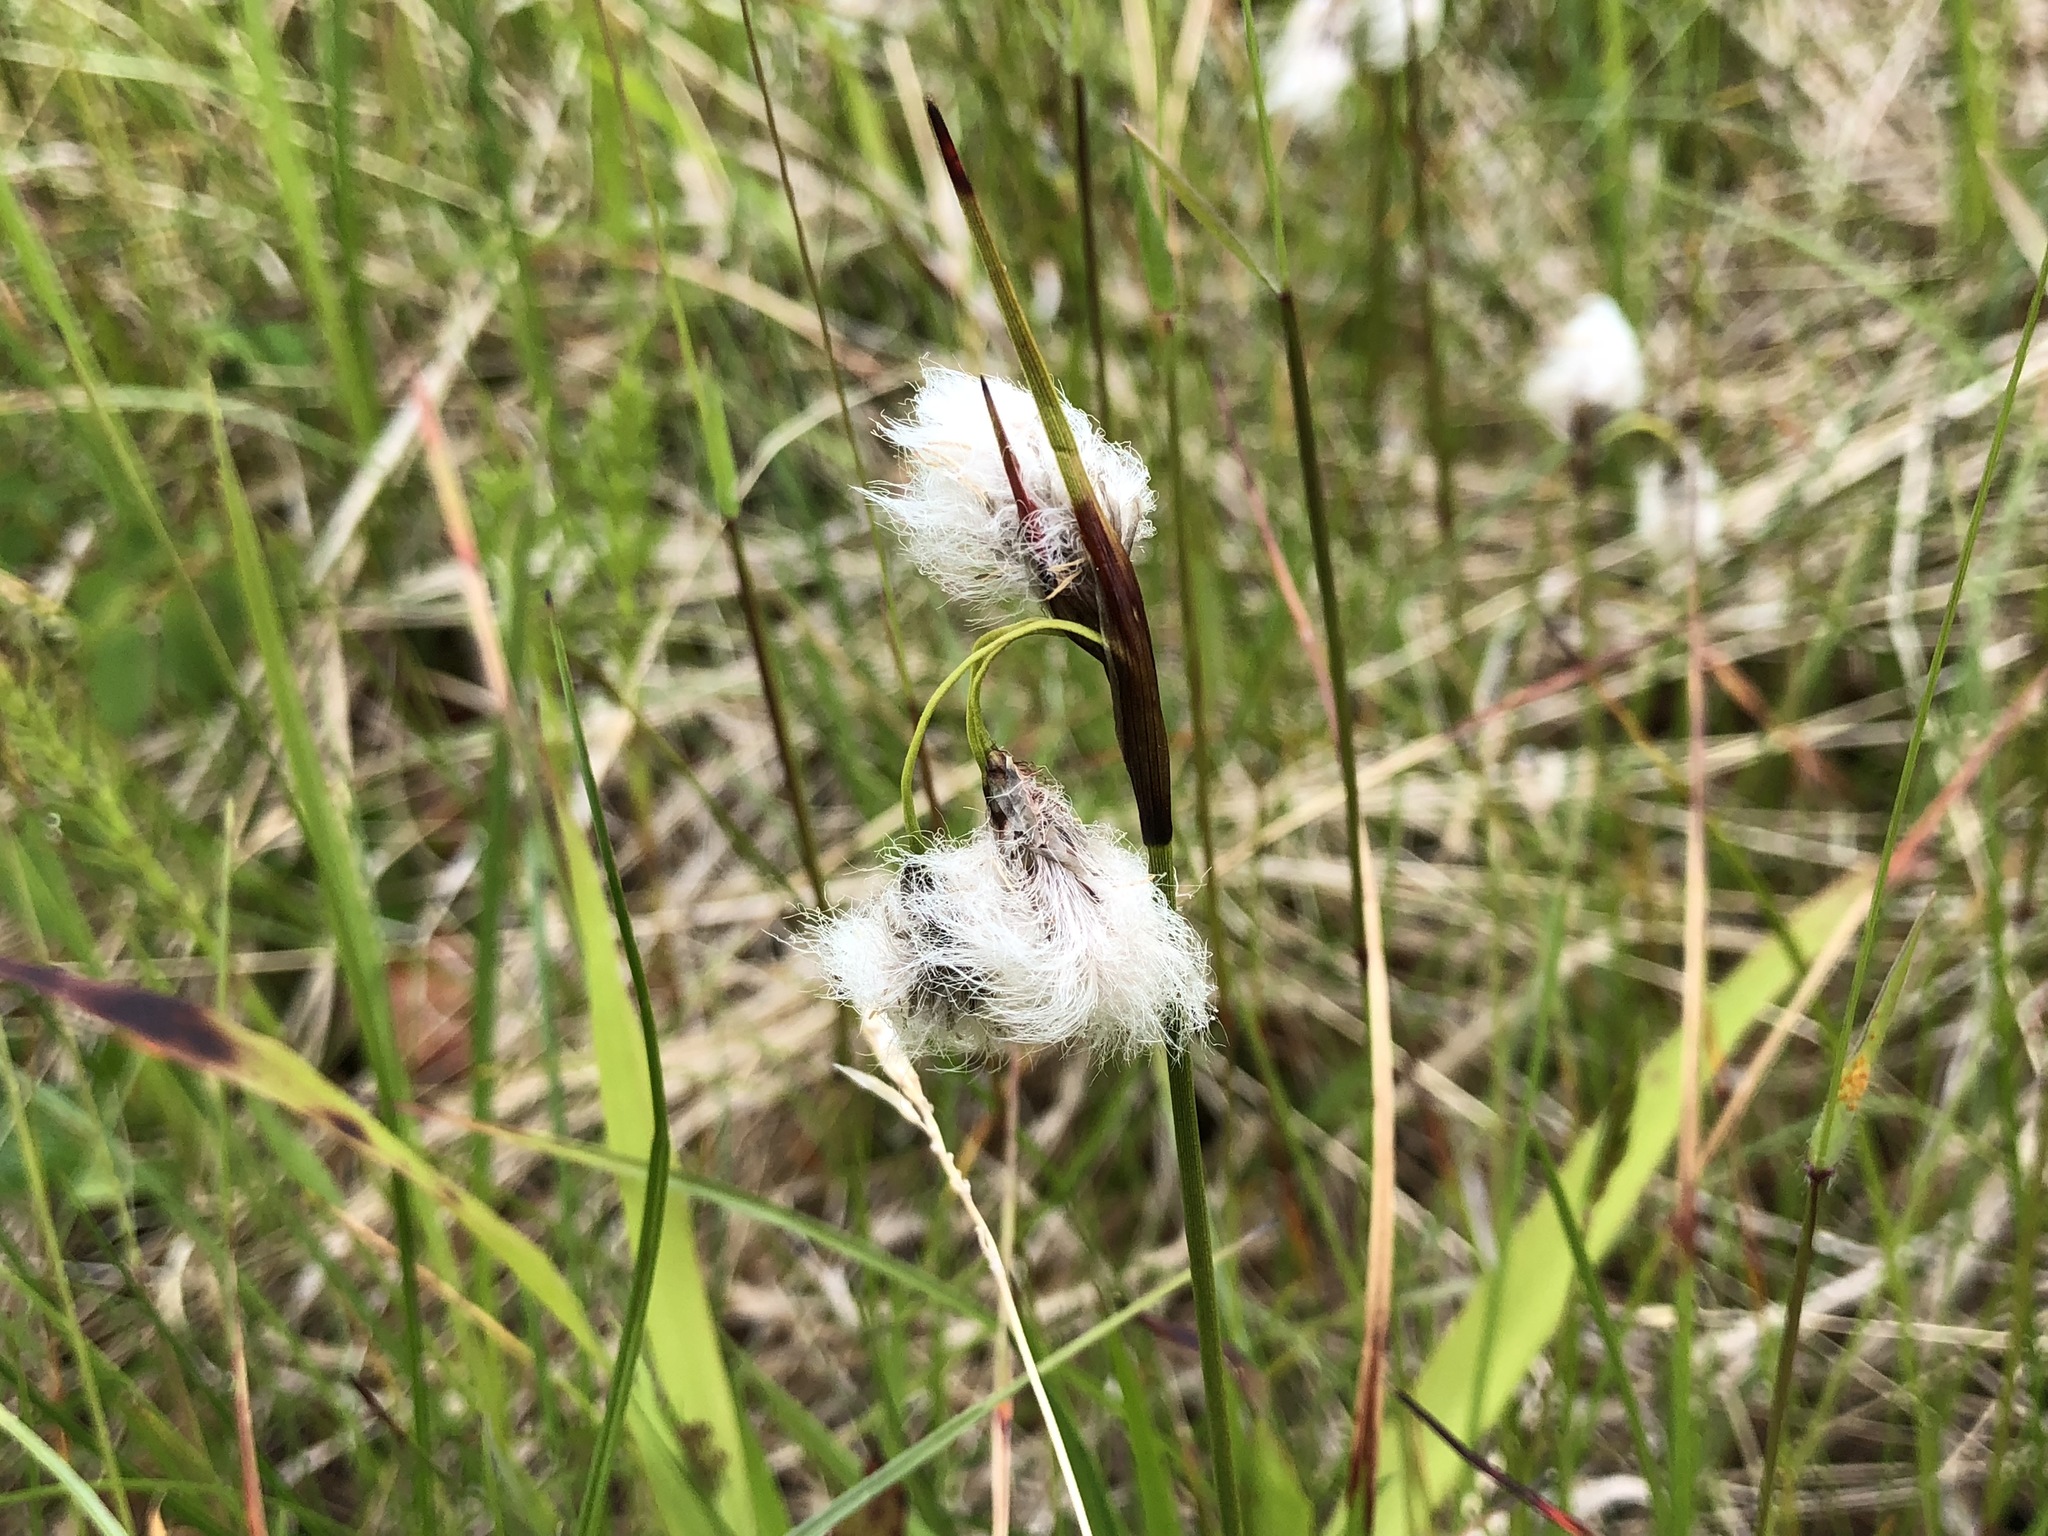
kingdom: Plantae
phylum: Tracheophyta
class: Liliopsida
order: Poales
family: Cyperaceae
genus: Eriophorum
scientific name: Eriophorum angustifolium
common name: Common cottongrass
